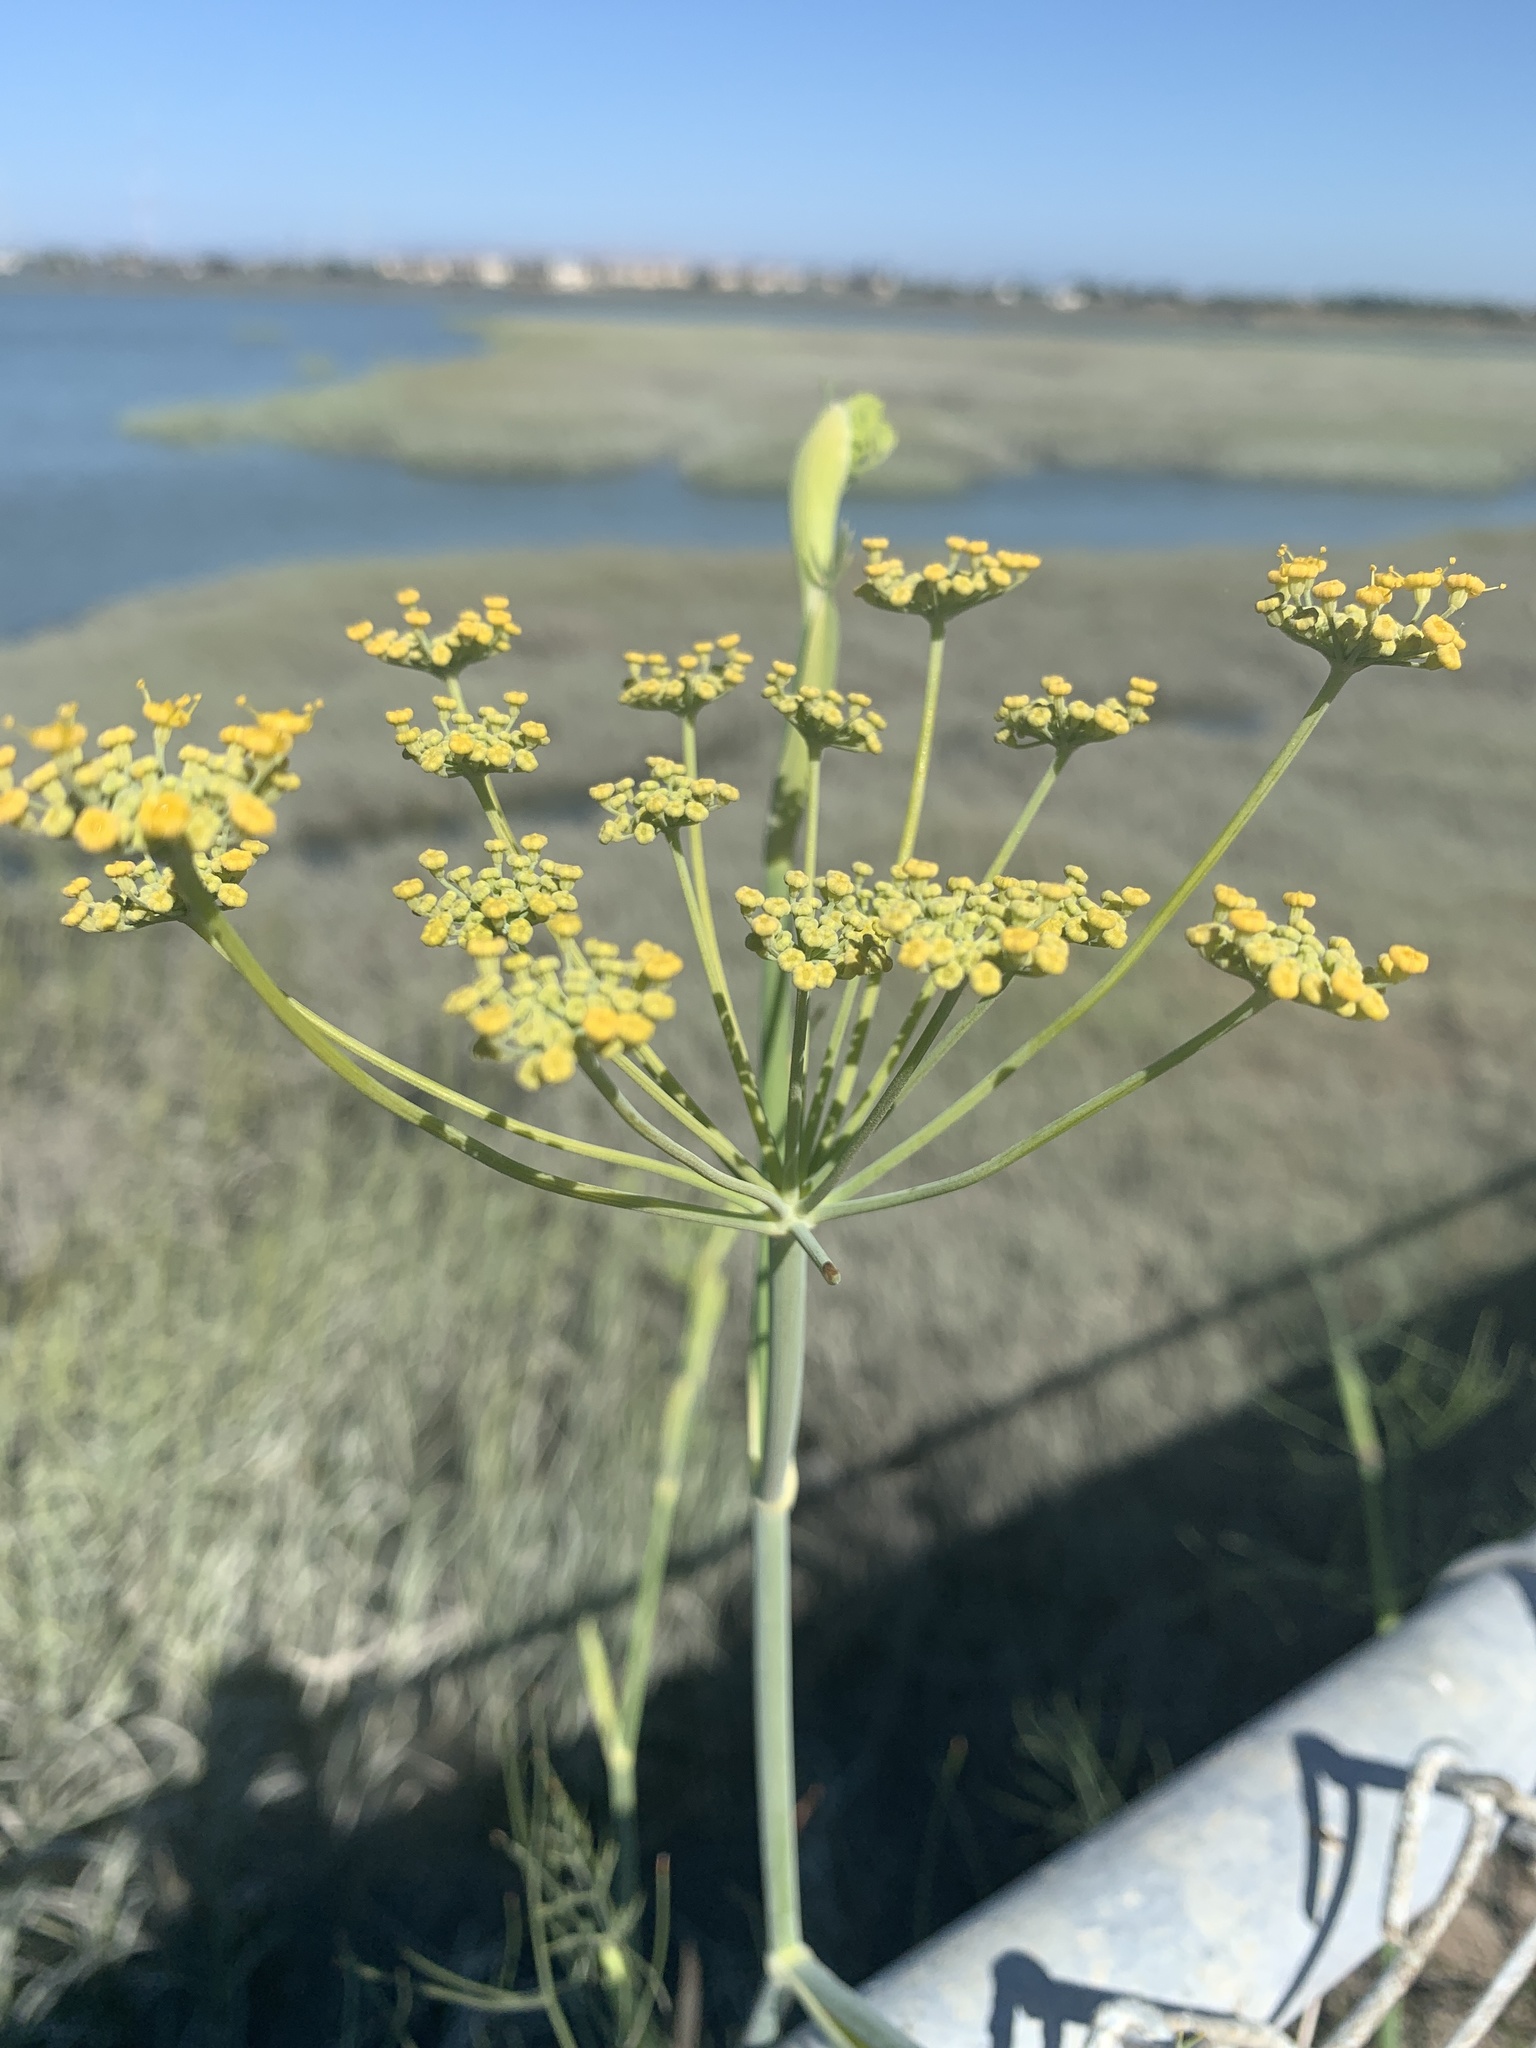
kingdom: Plantae
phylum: Tracheophyta
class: Magnoliopsida
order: Apiales
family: Apiaceae
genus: Foeniculum
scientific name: Foeniculum vulgare
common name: Fennel
